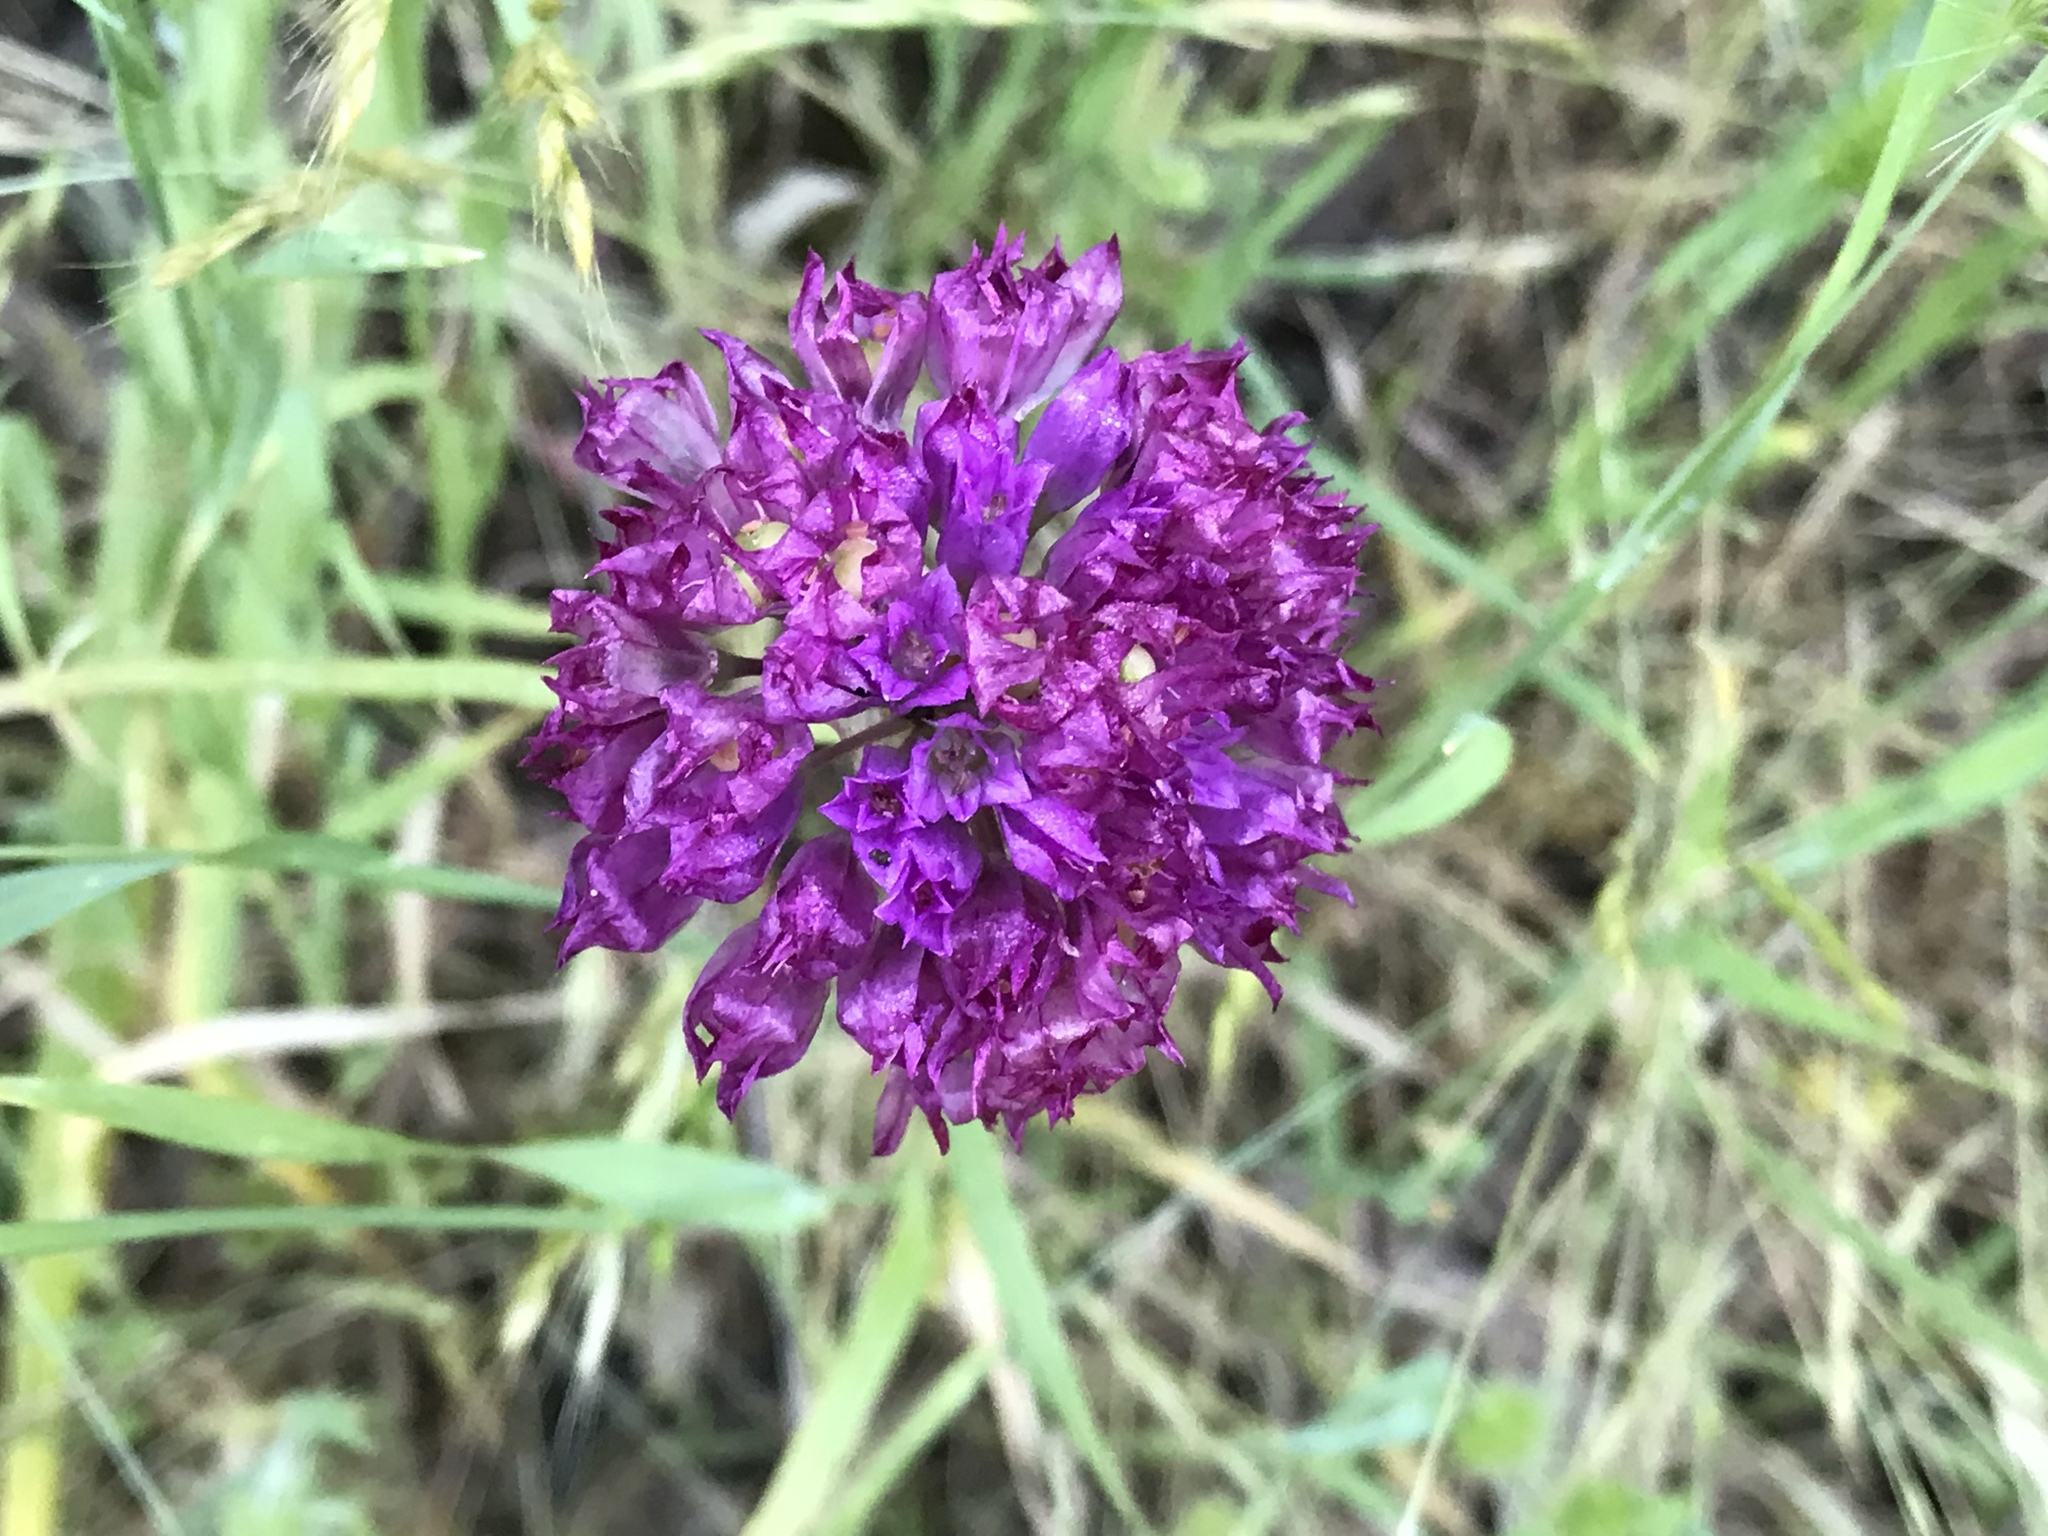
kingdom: Plantae
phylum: Tracheophyta
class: Liliopsida
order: Asparagales
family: Amaryllidaceae
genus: Allium
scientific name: Allium serra
